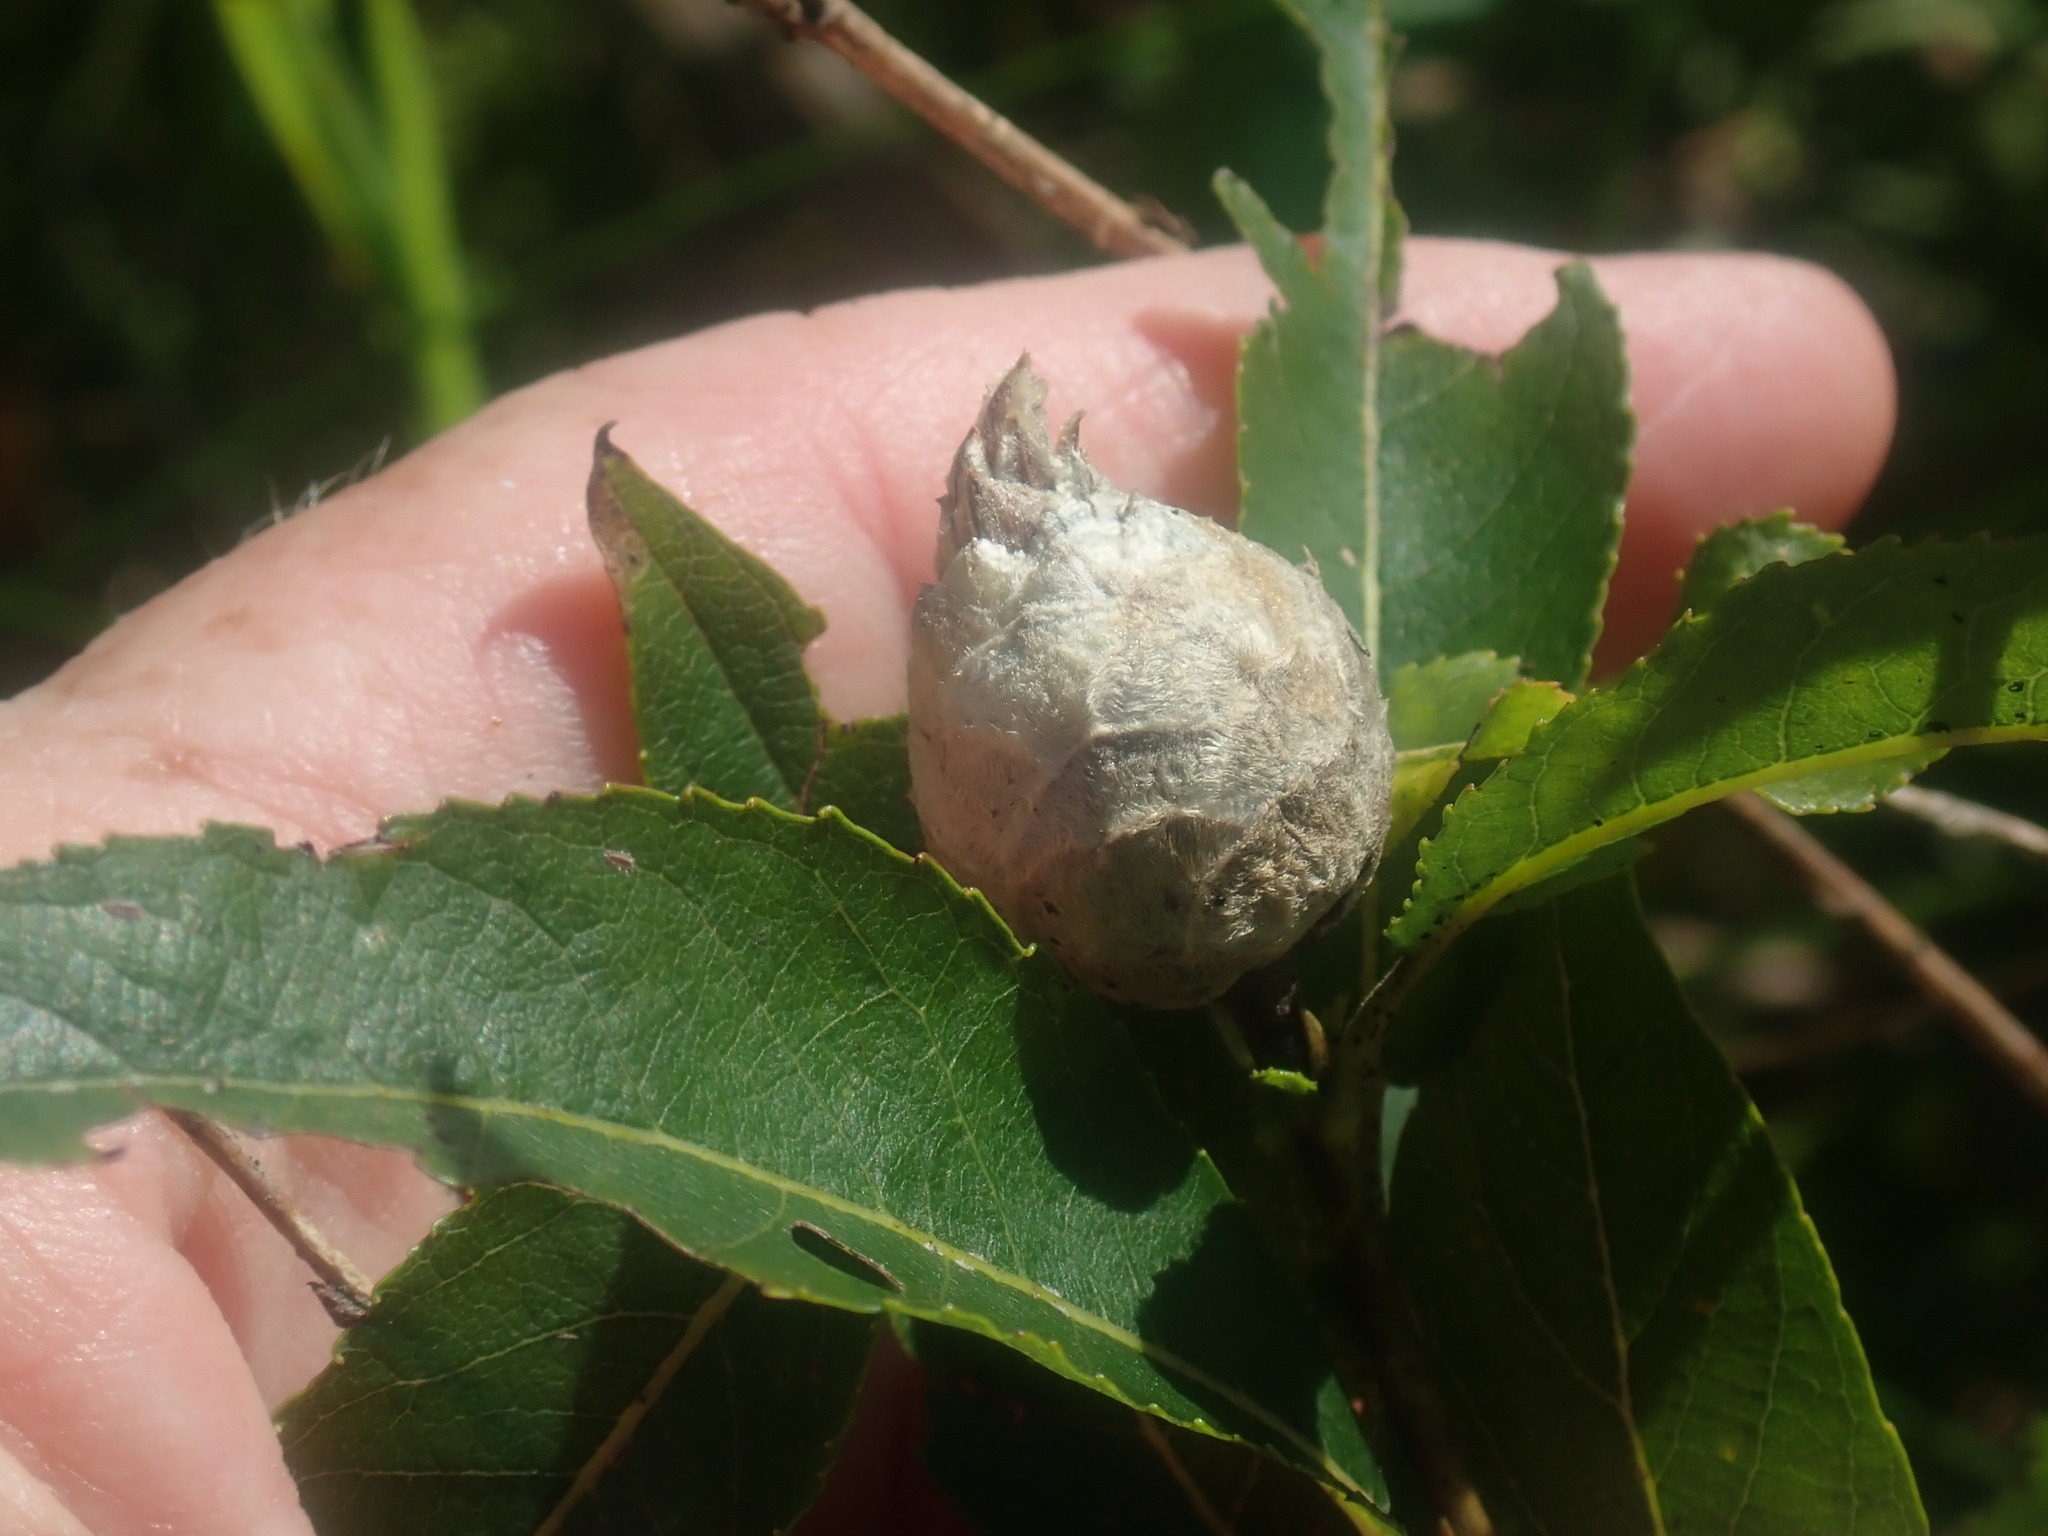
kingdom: Animalia
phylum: Arthropoda
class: Insecta
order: Diptera
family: Cecidomyiidae
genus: Rabdophaga
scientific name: Rabdophaga strobiloides
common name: Willow pinecone gall midge
